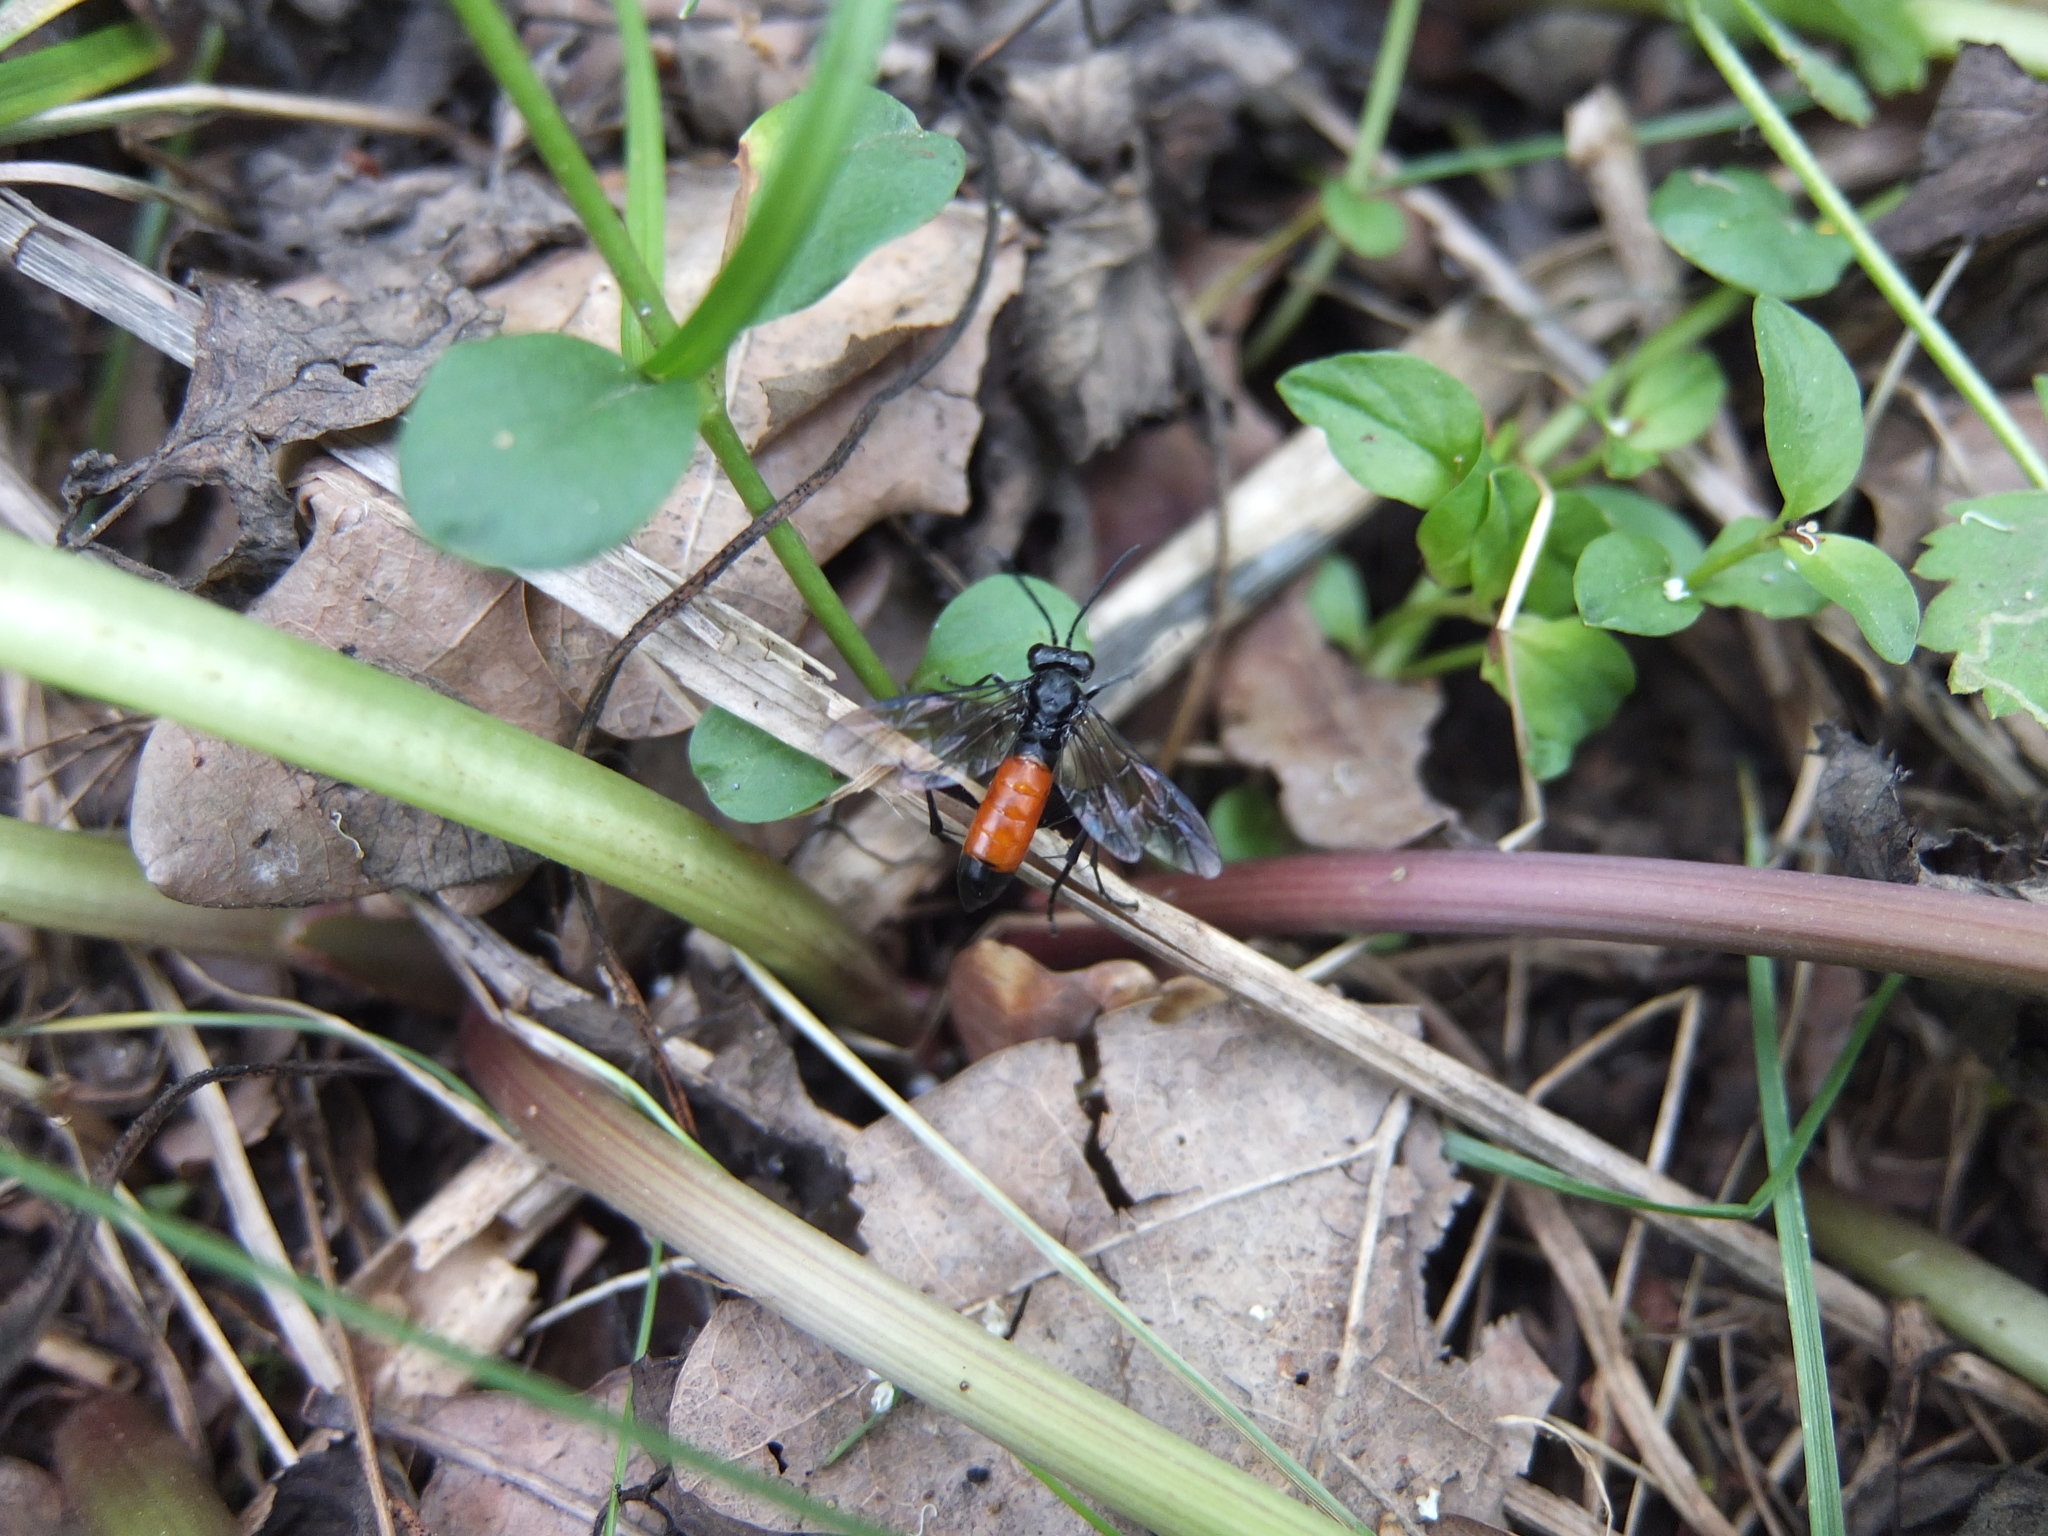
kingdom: Animalia
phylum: Arthropoda
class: Insecta
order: Hymenoptera
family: Tenthredinidae
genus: Macrophya
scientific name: Macrophya annulata
